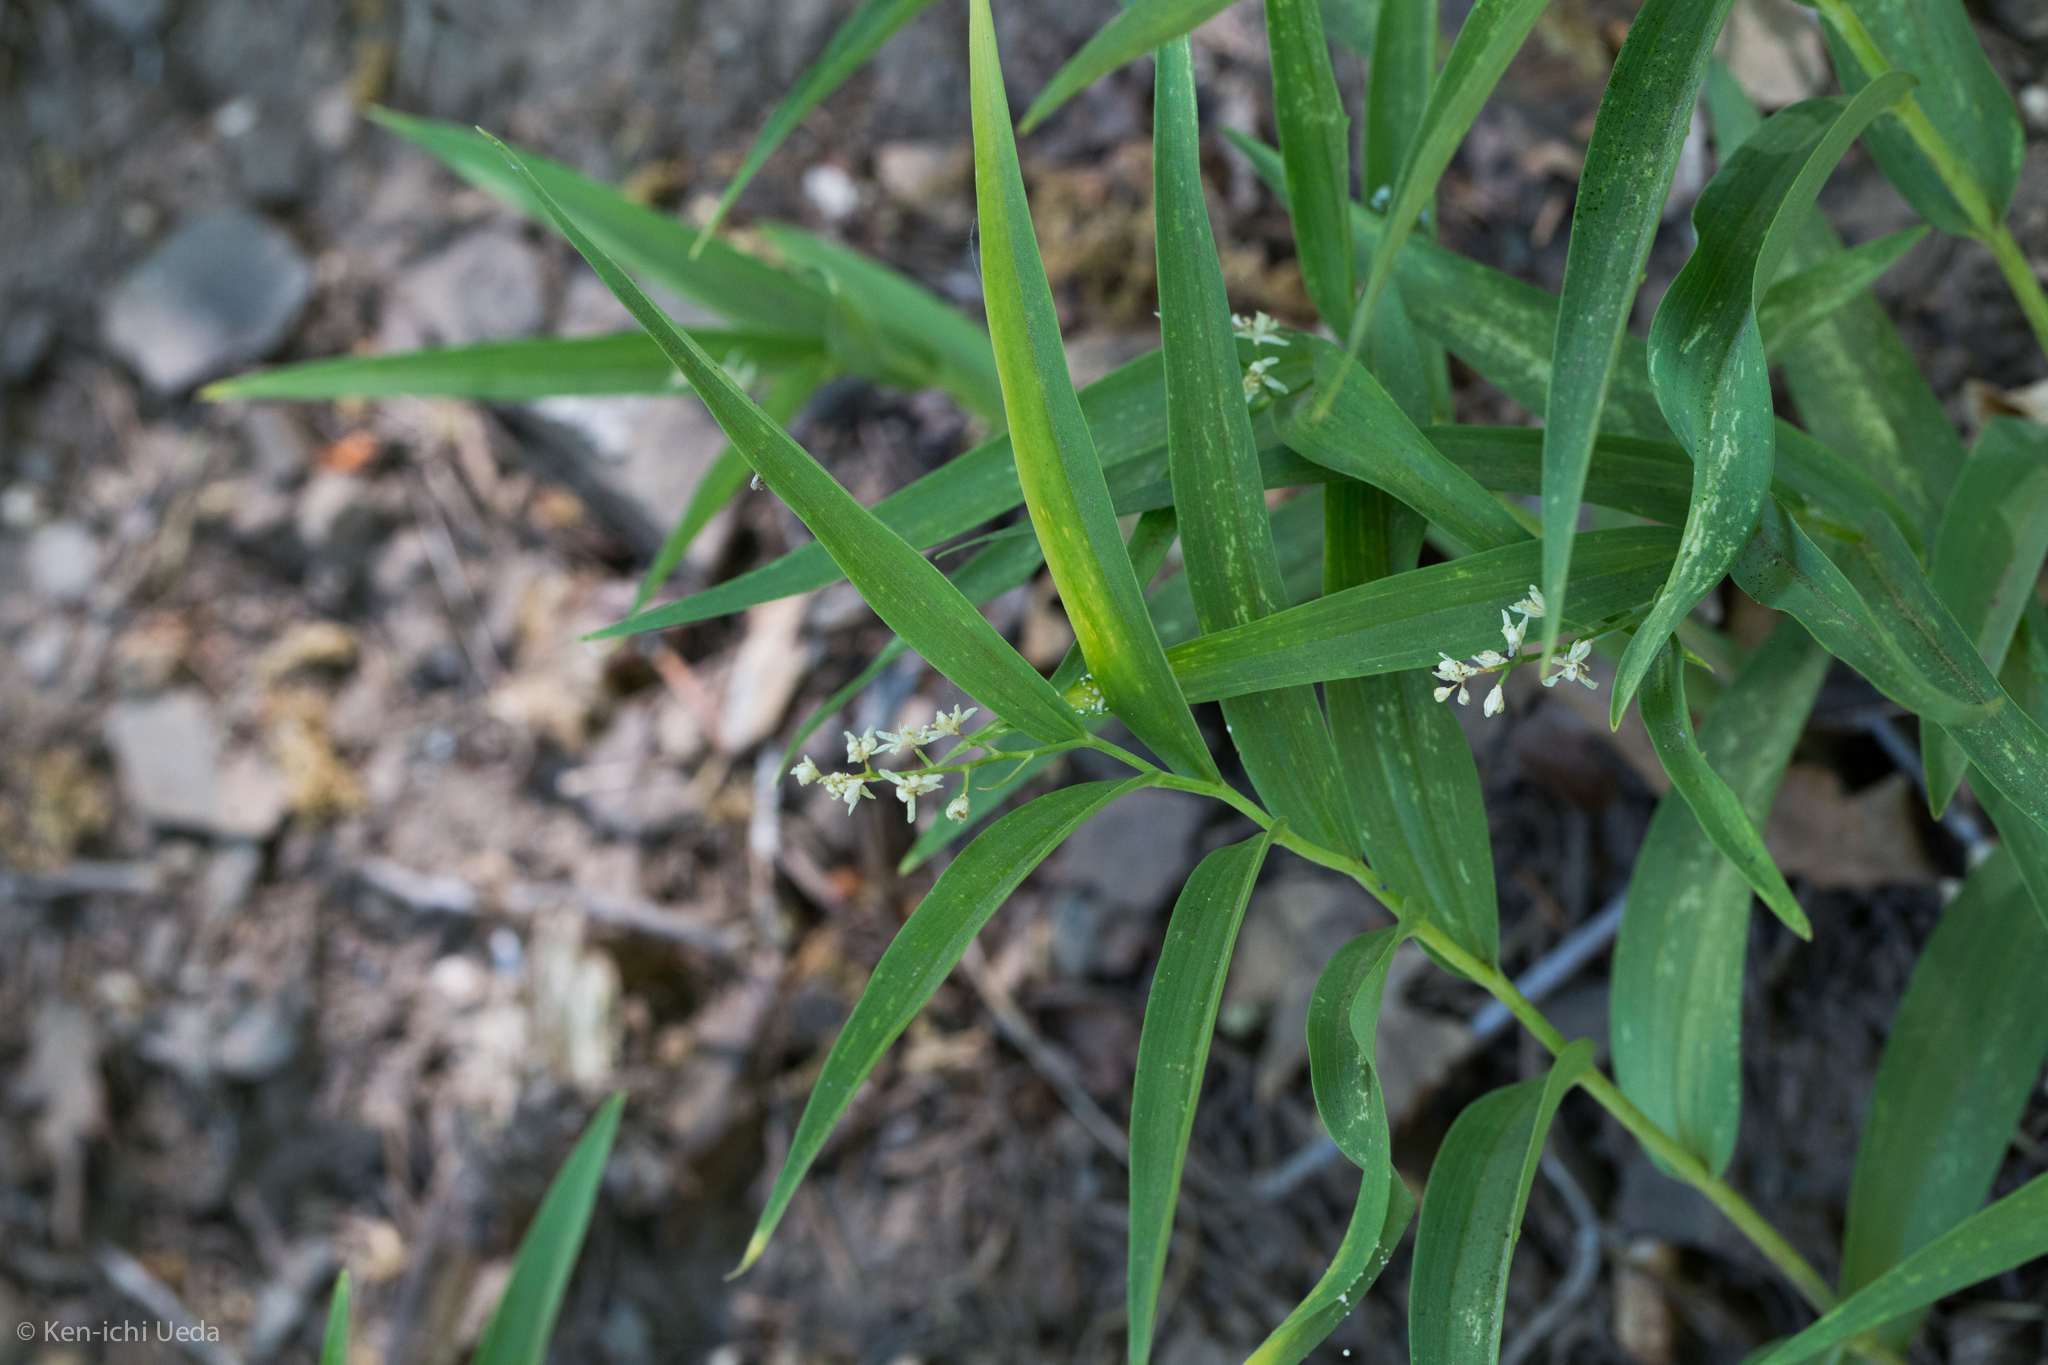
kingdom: Plantae
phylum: Tracheophyta
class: Liliopsida
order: Asparagales
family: Asparagaceae
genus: Maianthemum
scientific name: Maianthemum stellatum
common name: Little false solomon's seal
